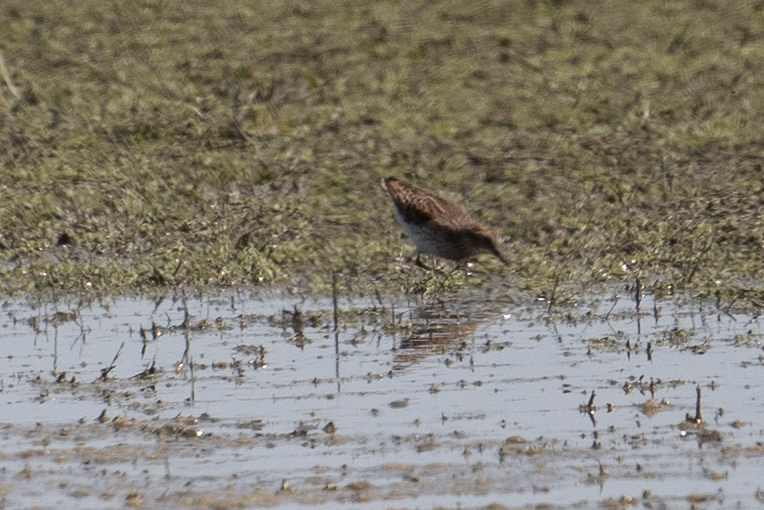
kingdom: Animalia
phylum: Chordata
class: Aves
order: Charadriiformes
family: Scolopacidae
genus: Calidris
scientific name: Calidris minutilla
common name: Least sandpiper
